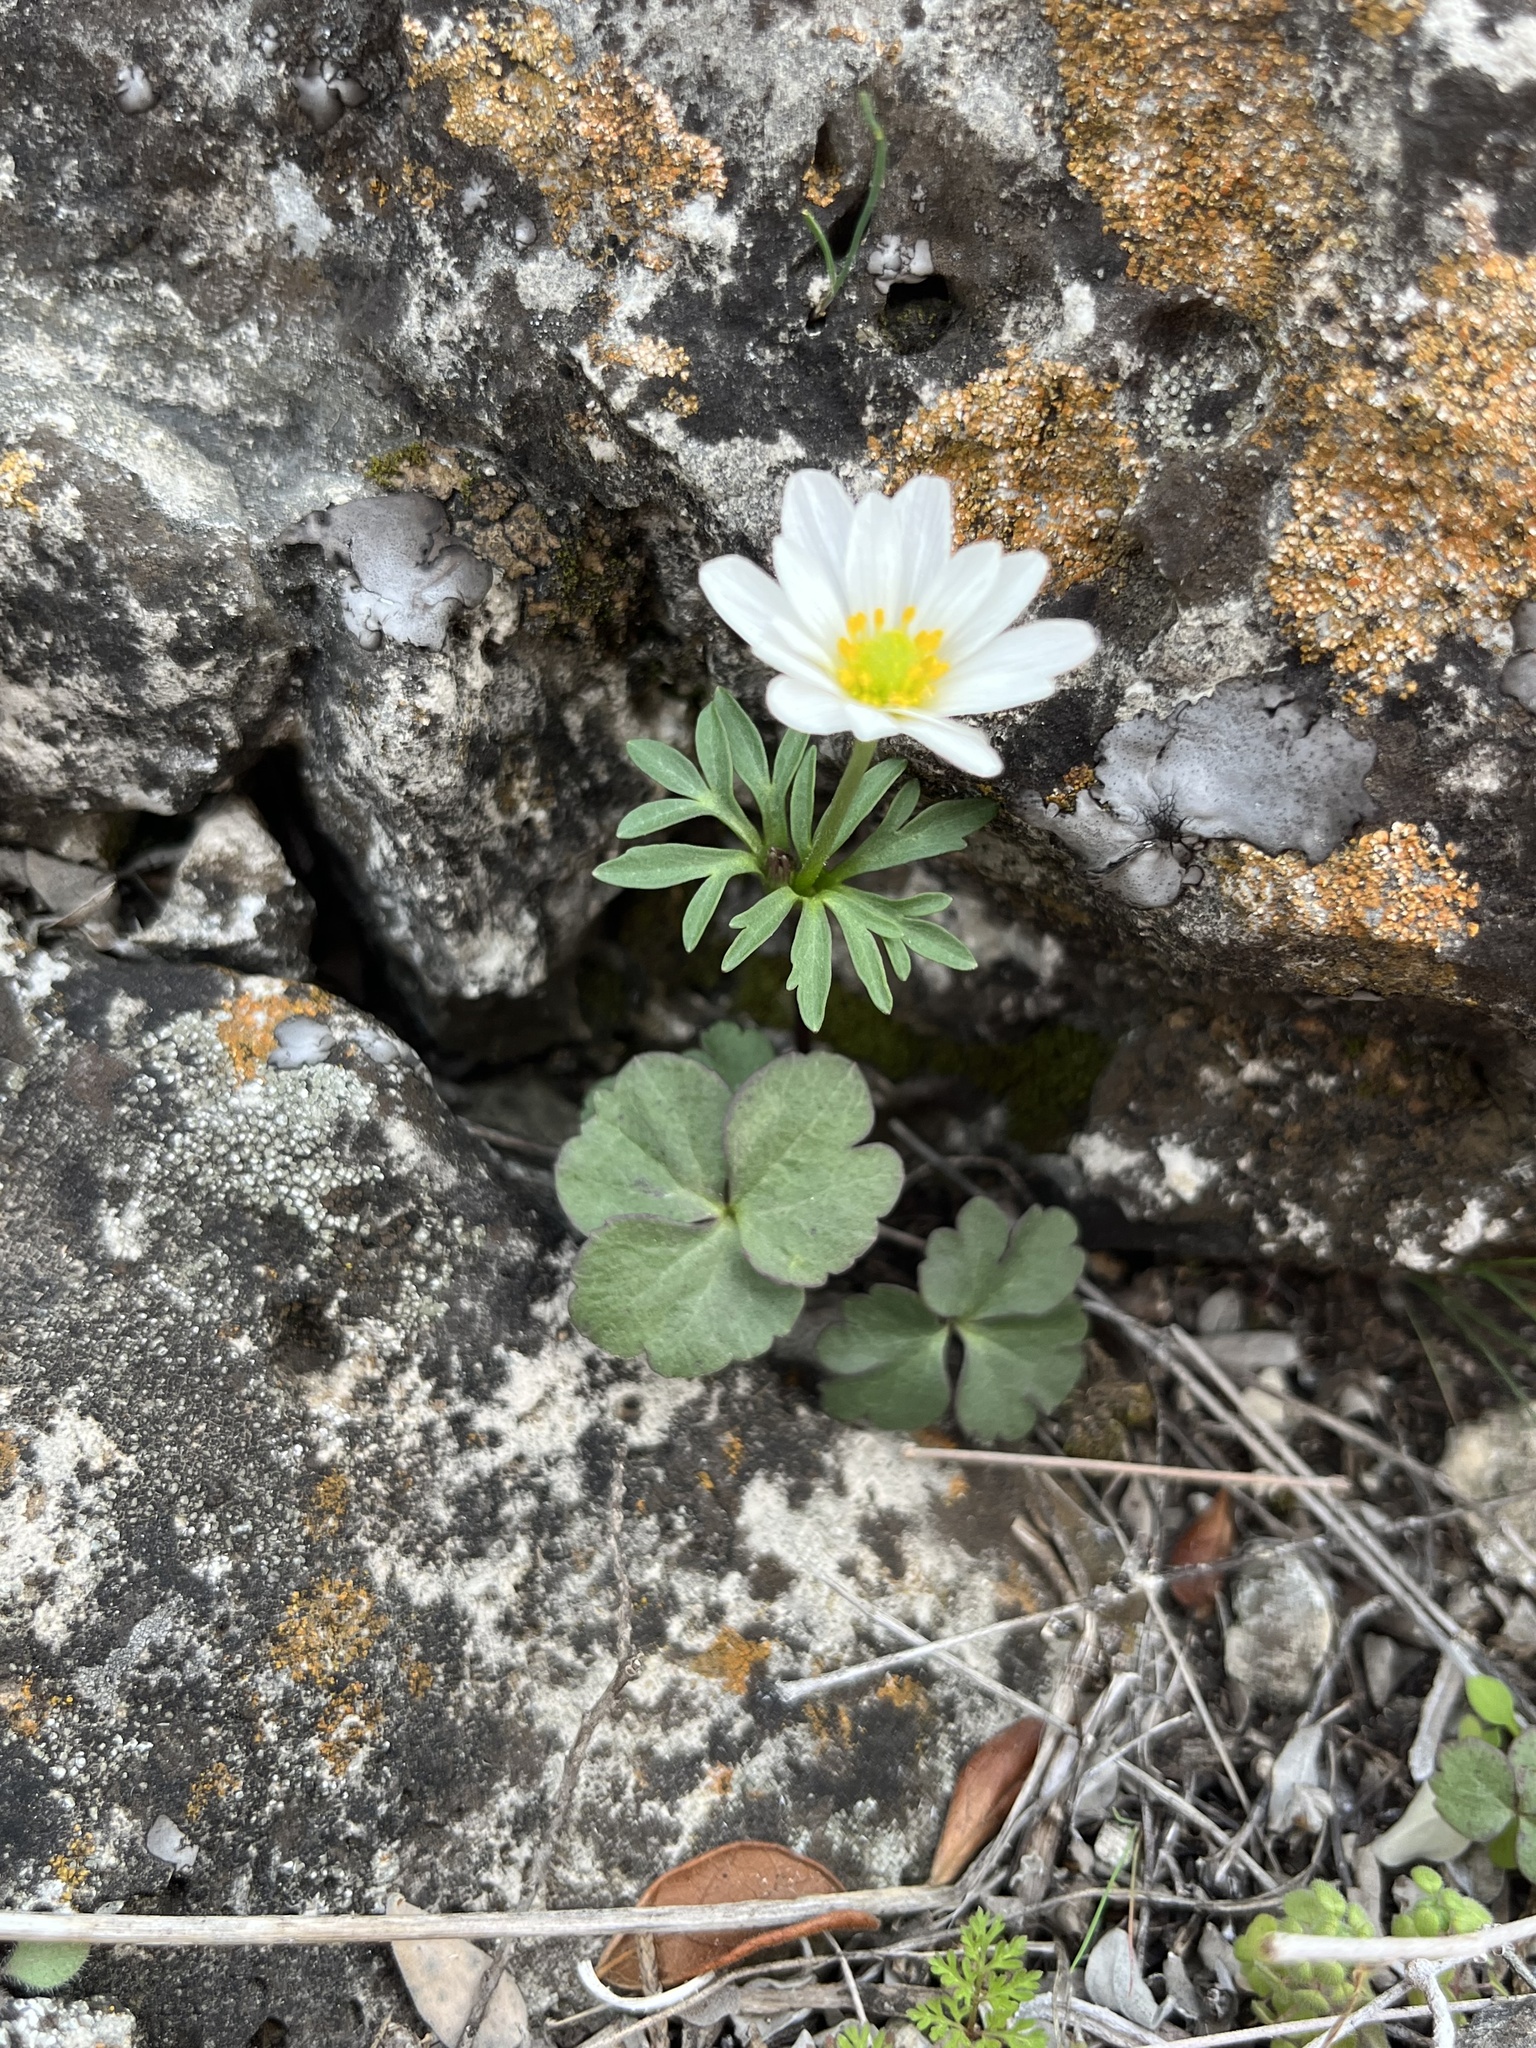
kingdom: Plantae
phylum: Tracheophyta
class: Magnoliopsida
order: Ranunculales
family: Ranunculaceae
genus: Anemone
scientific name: Anemone edwardsiana
